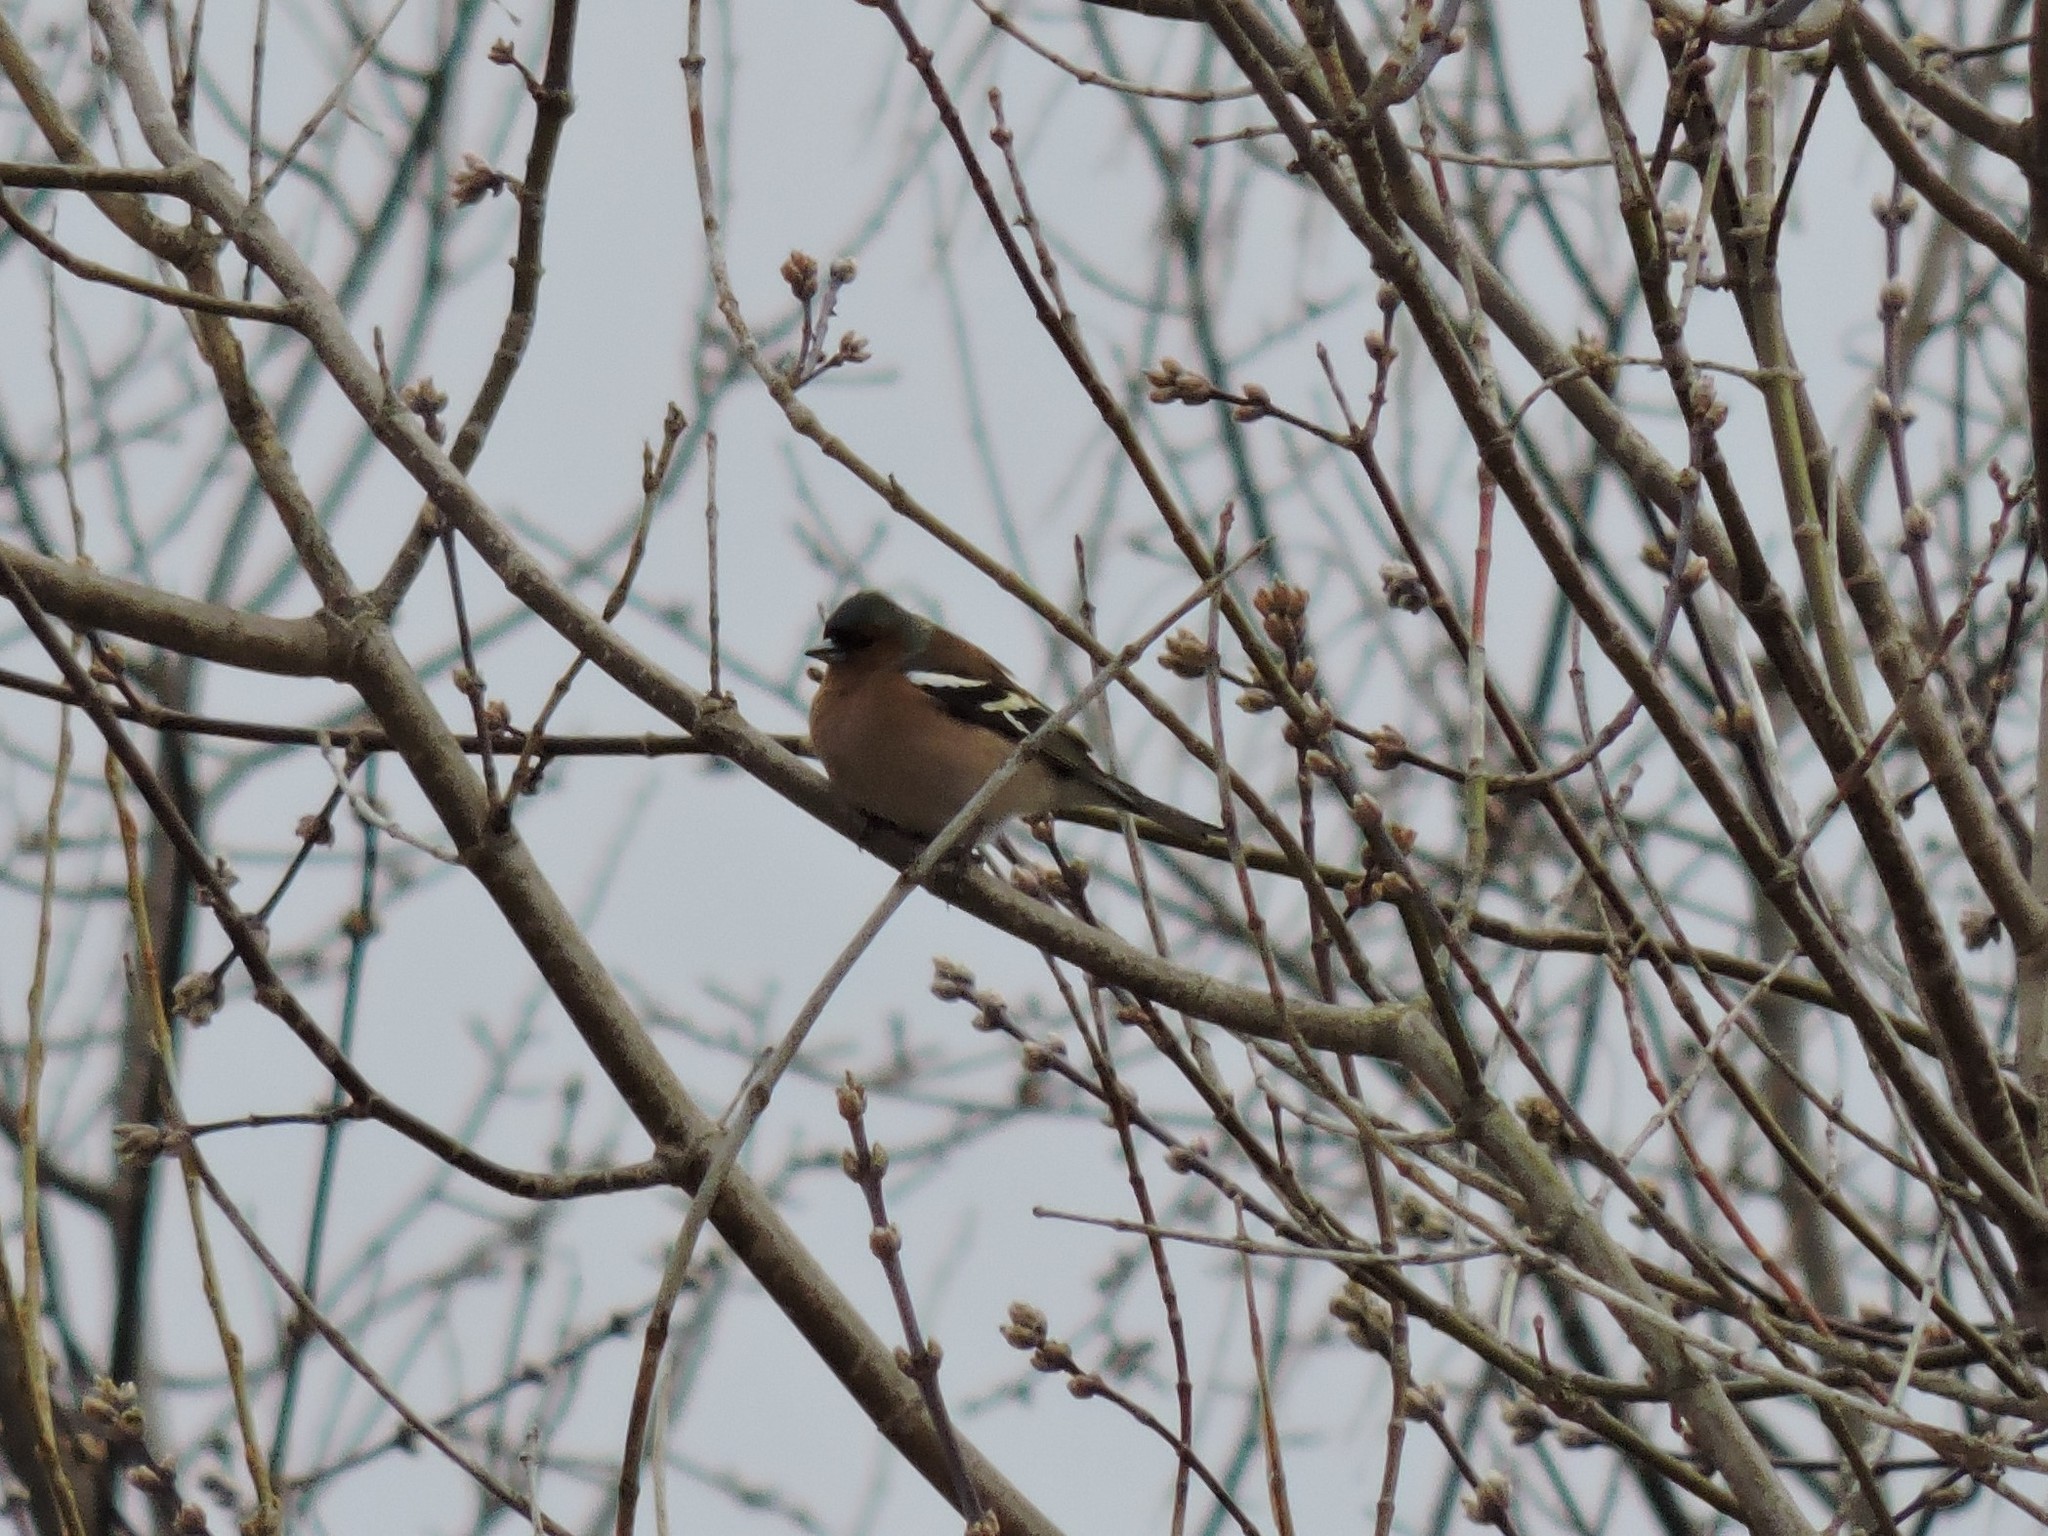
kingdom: Animalia
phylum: Chordata
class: Aves
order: Passeriformes
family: Fringillidae
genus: Fringilla
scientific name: Fringilla coelebs
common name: Common chaffinch
